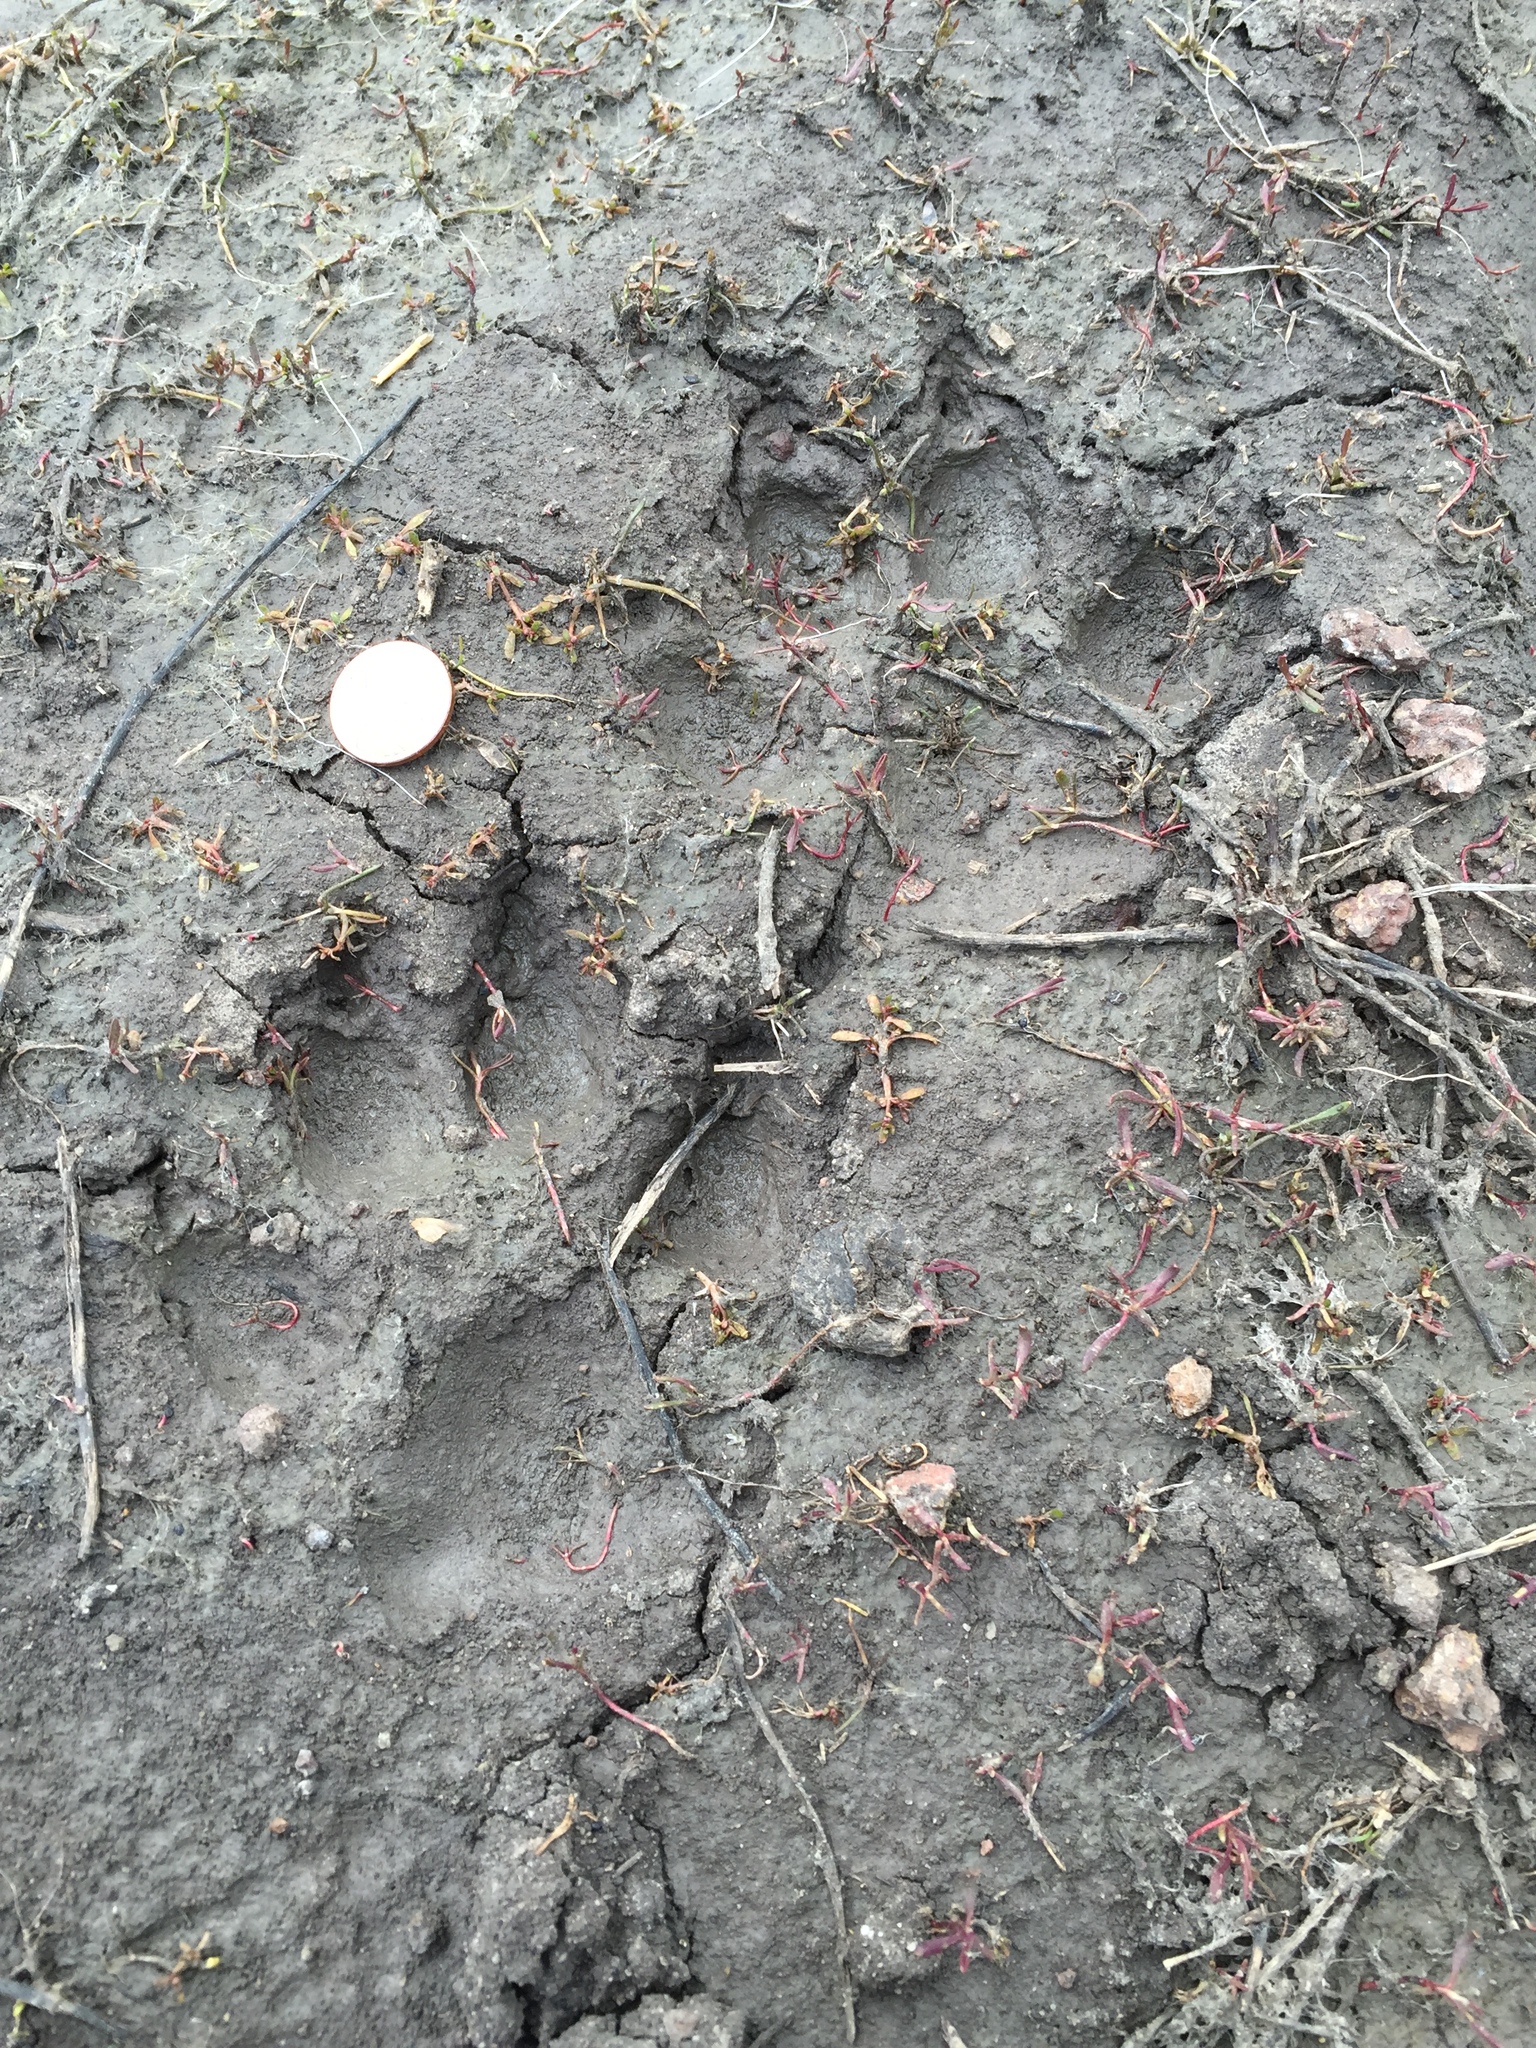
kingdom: Animalia
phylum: Chordata
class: Mammalia
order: Carnivora
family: Canidae
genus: Canis
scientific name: Canis lupus
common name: Gray wolf
